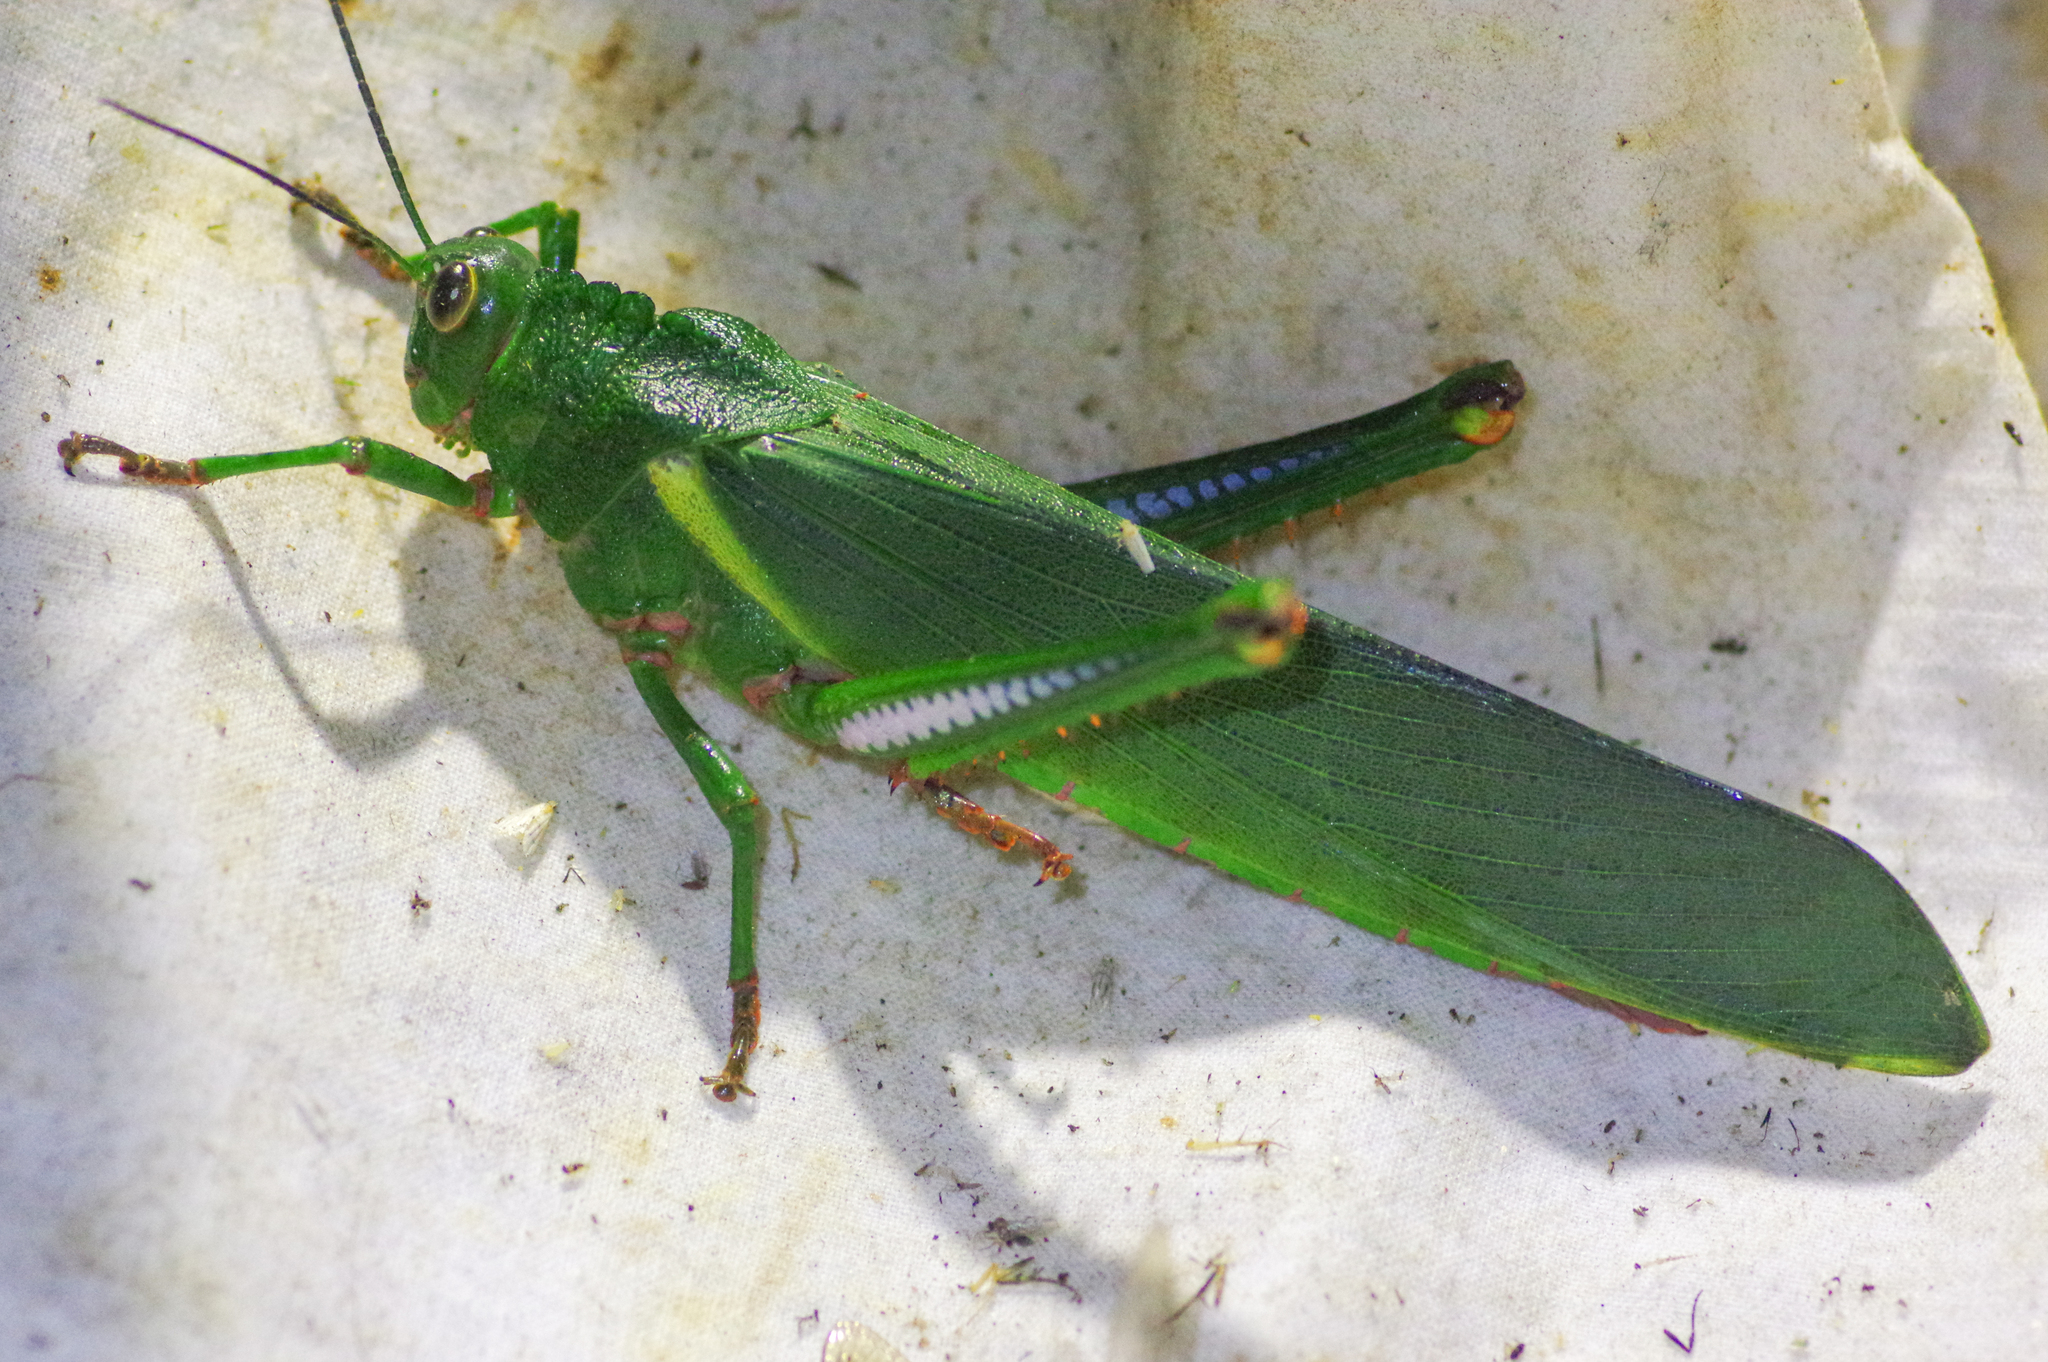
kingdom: Animalia
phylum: Arthropoda
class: Insecta
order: Orthoptera
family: Romaleidae
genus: Titanacris
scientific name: Titanacris albipes
